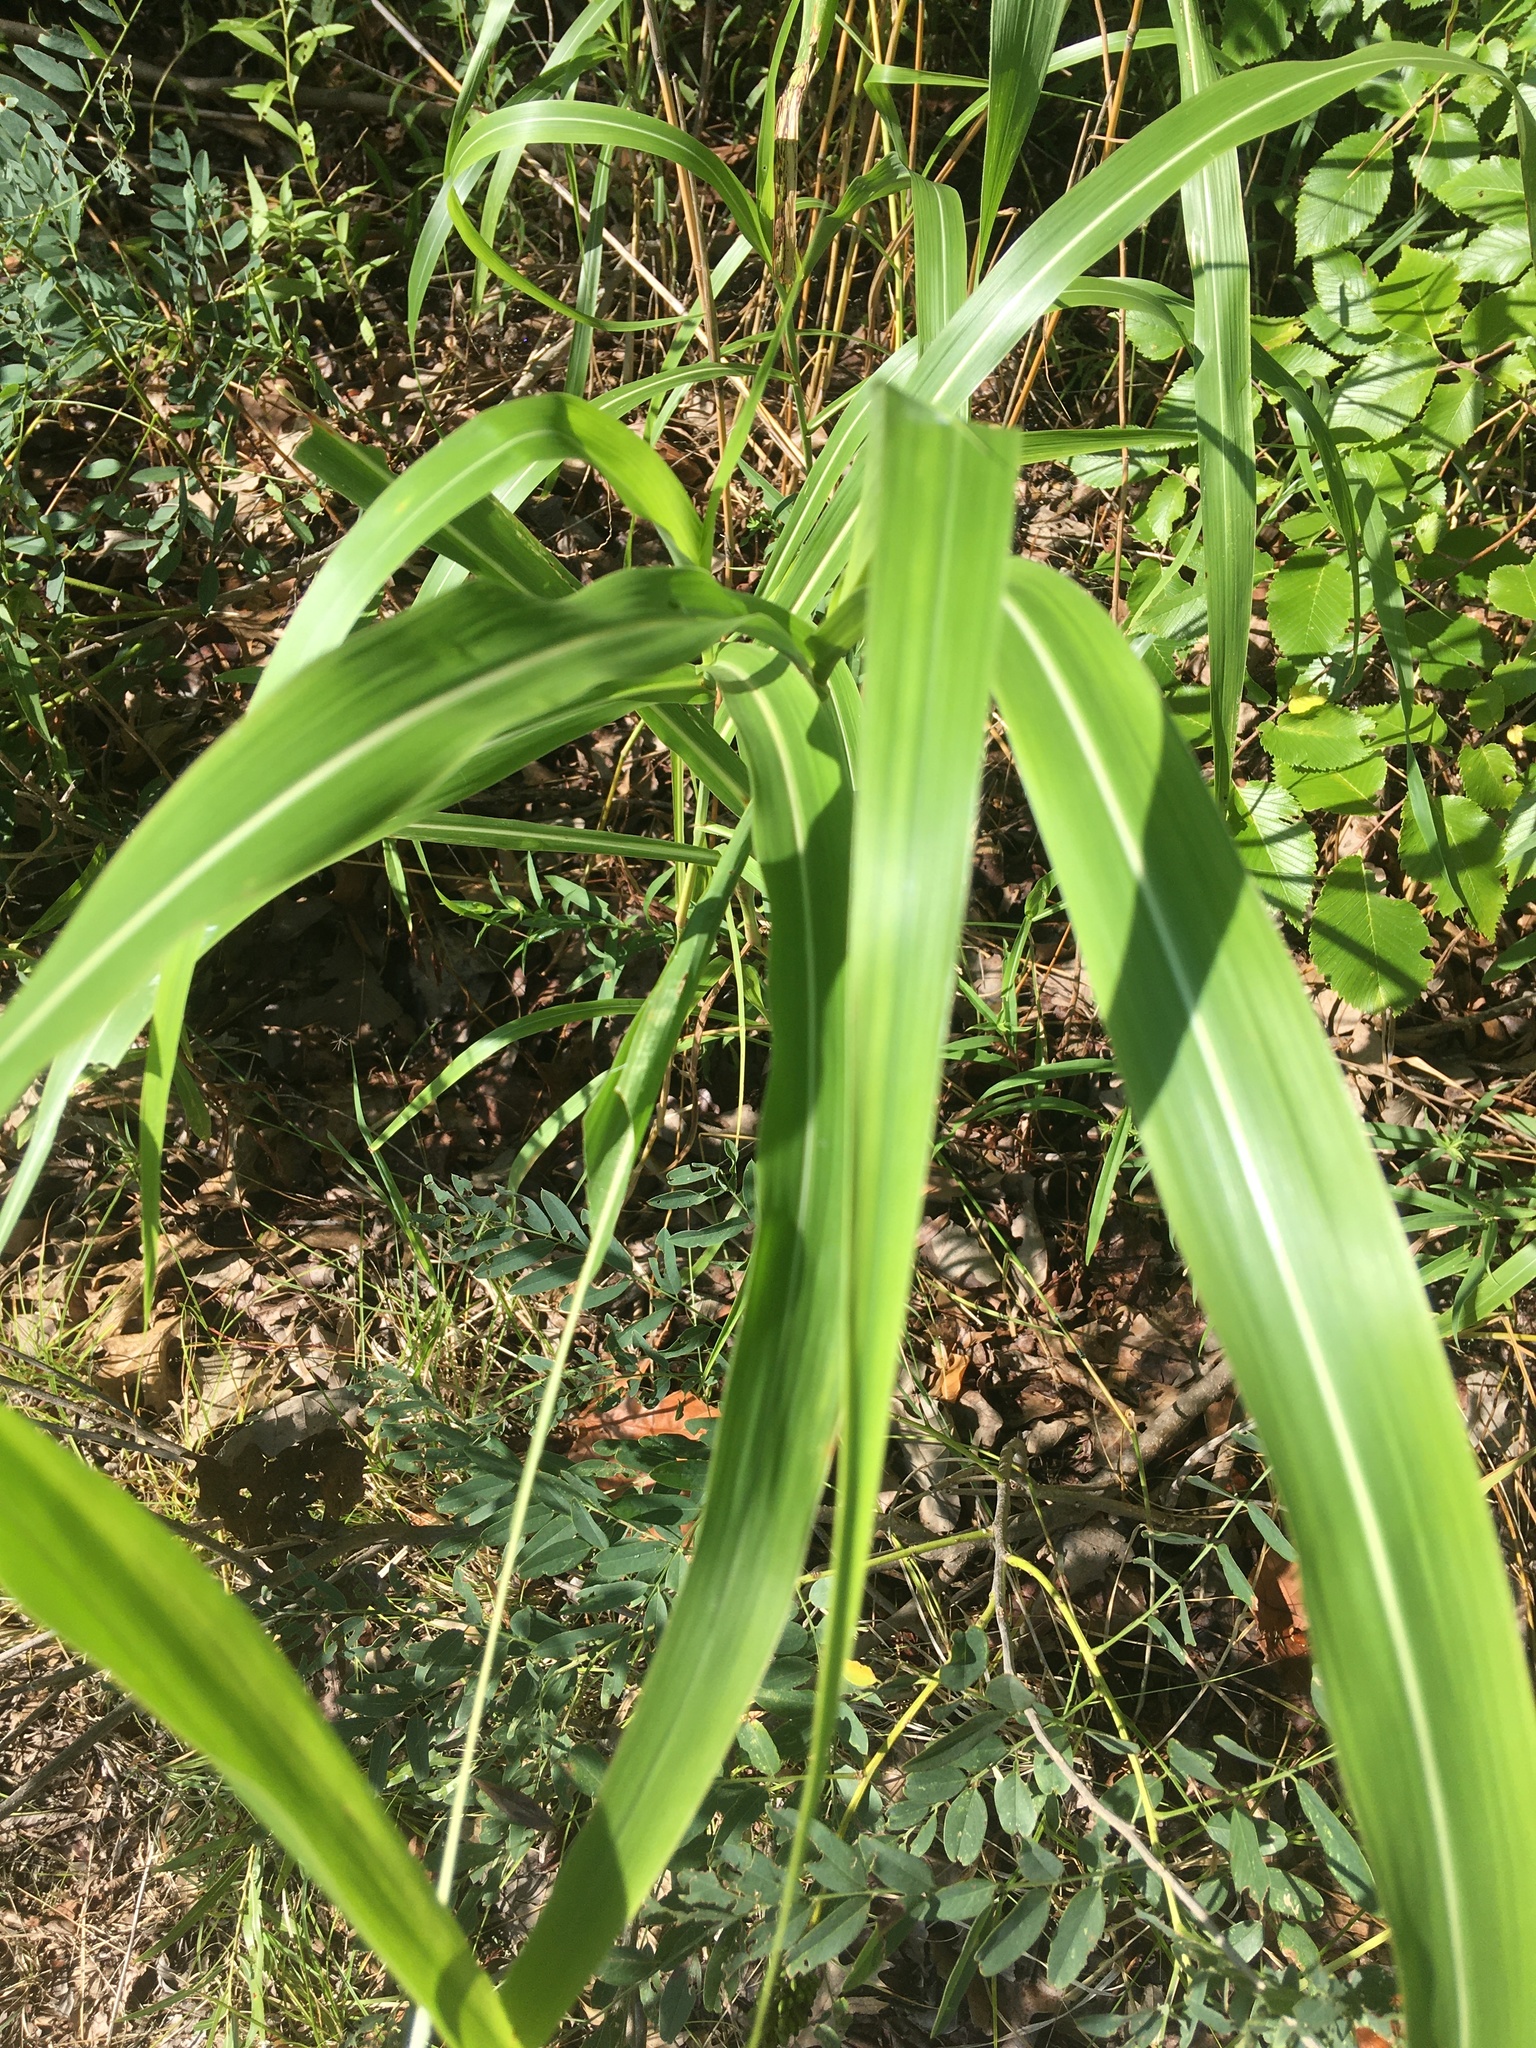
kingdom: Plantae
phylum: Tracheophyta
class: Liliopsida
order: Poales
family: Poaceae
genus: Sorghum
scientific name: Sorghum halepense
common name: Johnson-grass
